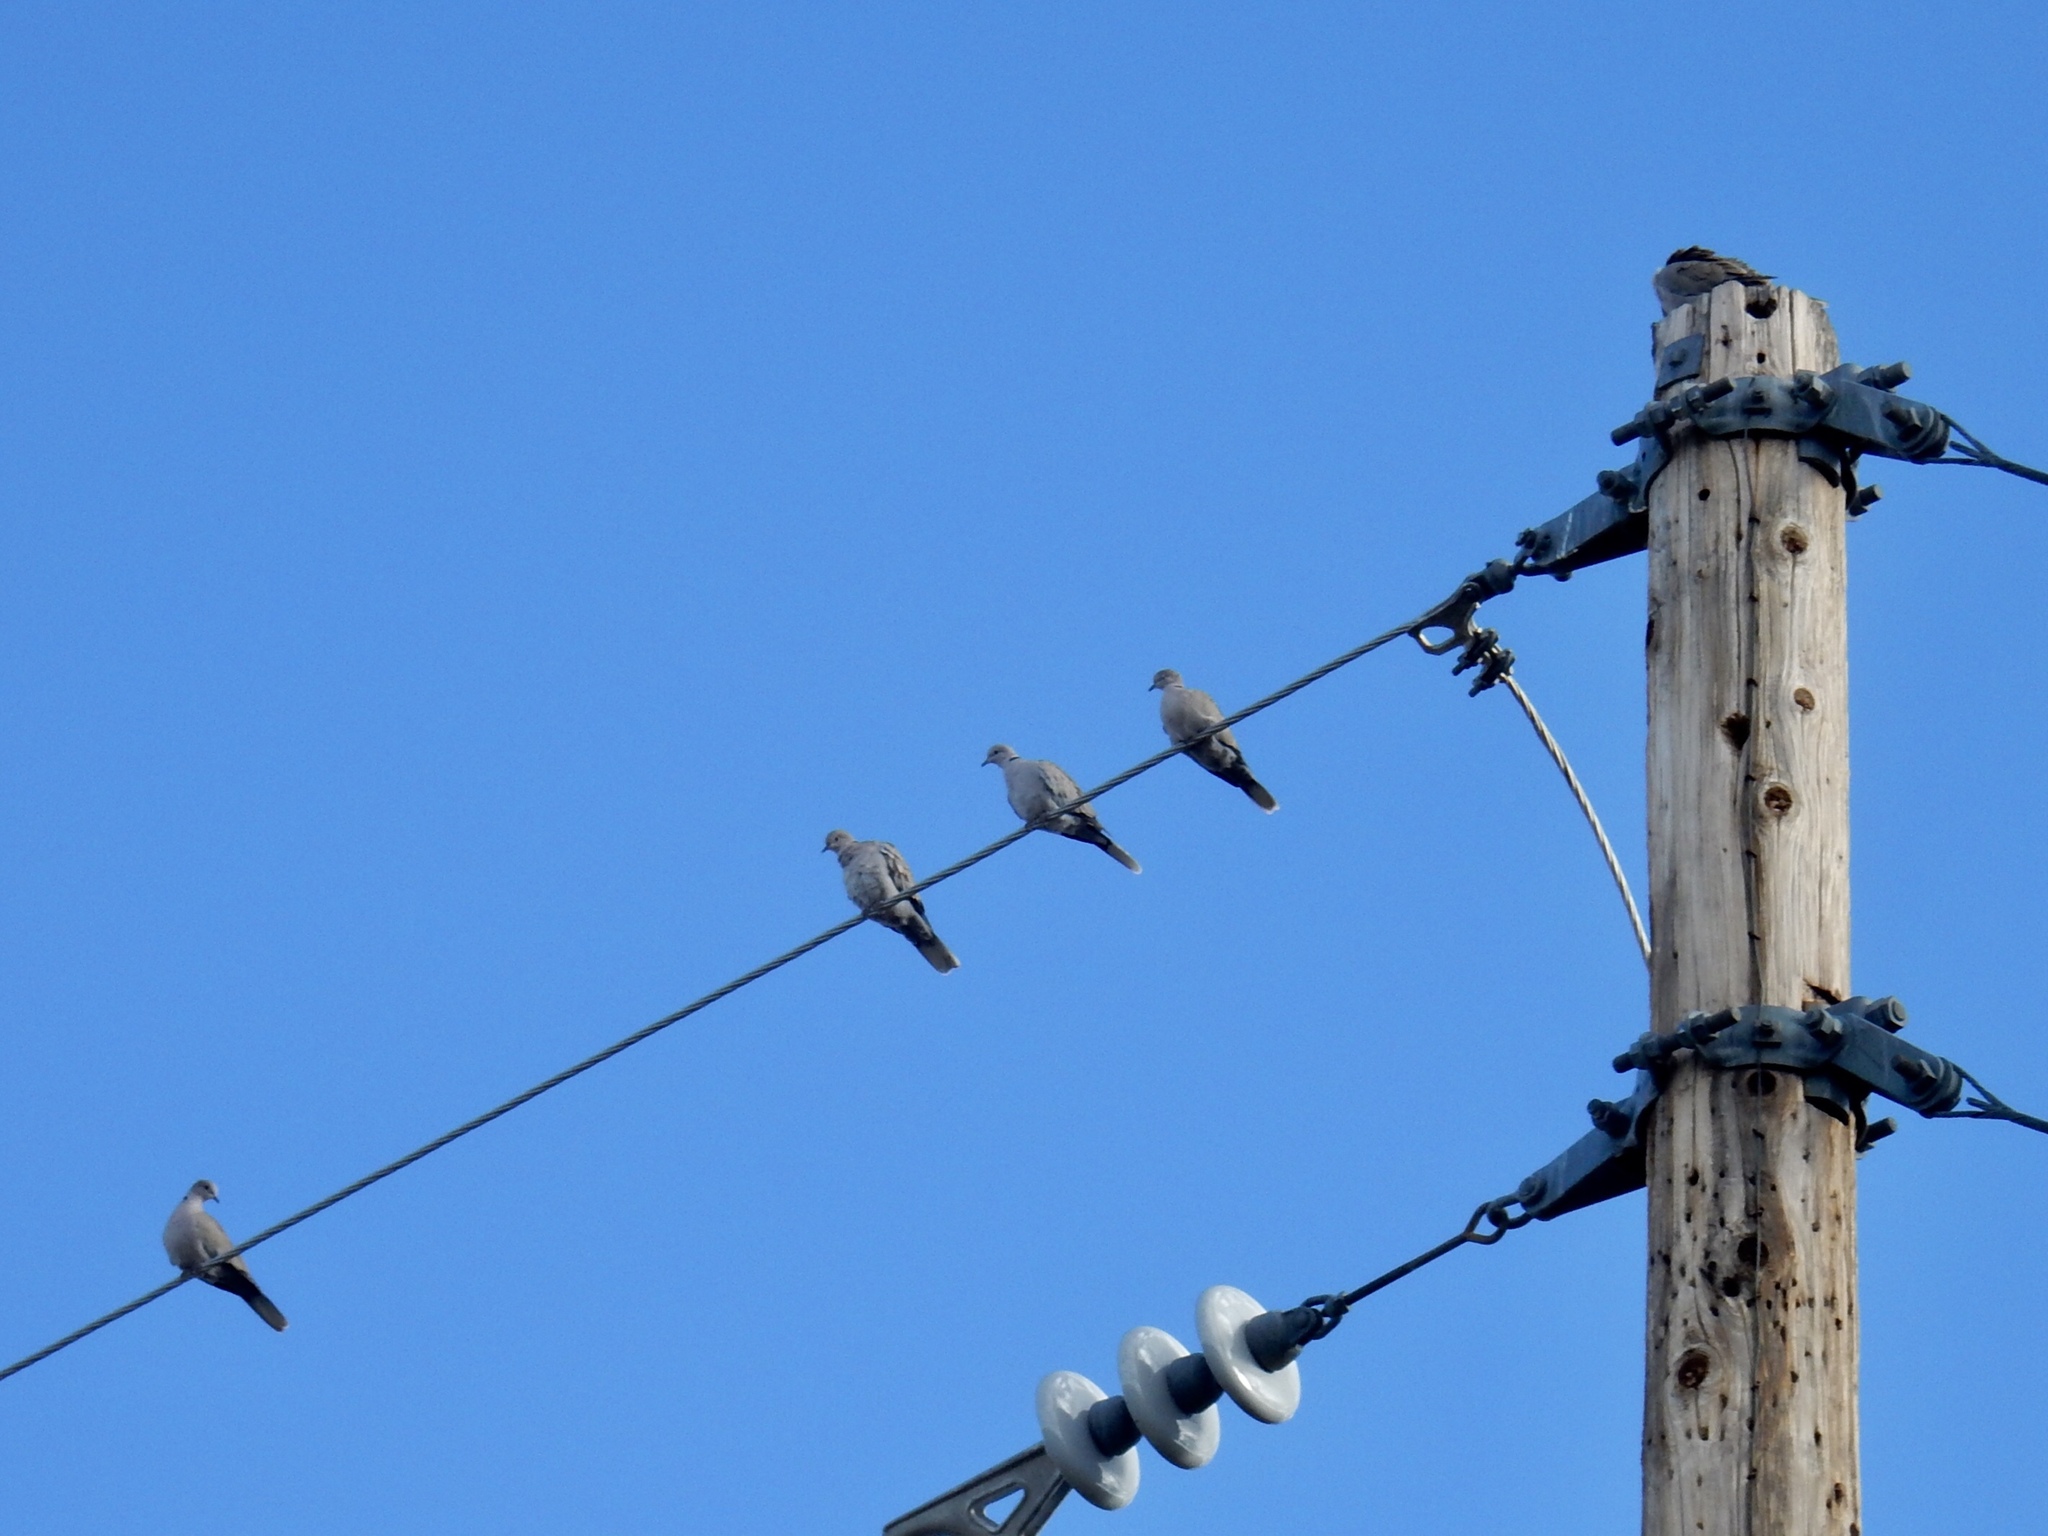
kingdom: Animalia
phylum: Chordata
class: Aves
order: Columbiformes
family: Columbidae
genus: Streptopelia
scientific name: Streptopelia decaocto
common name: Eurasian collared dove
